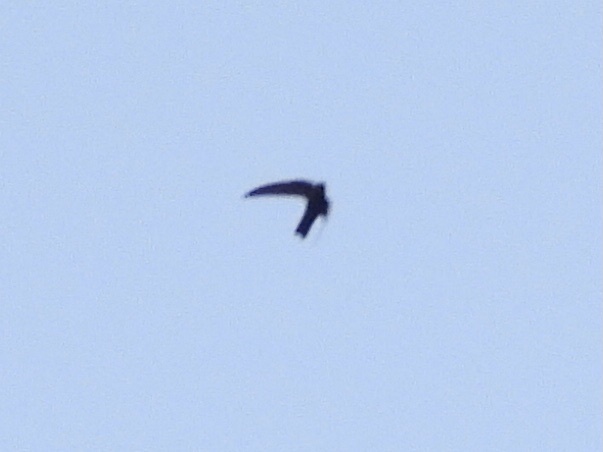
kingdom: Animalia
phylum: Chordata
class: Aves
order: Apodiformes
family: Apodidae
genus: Cypseloides
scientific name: Cypseloides niger
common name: Black swift
